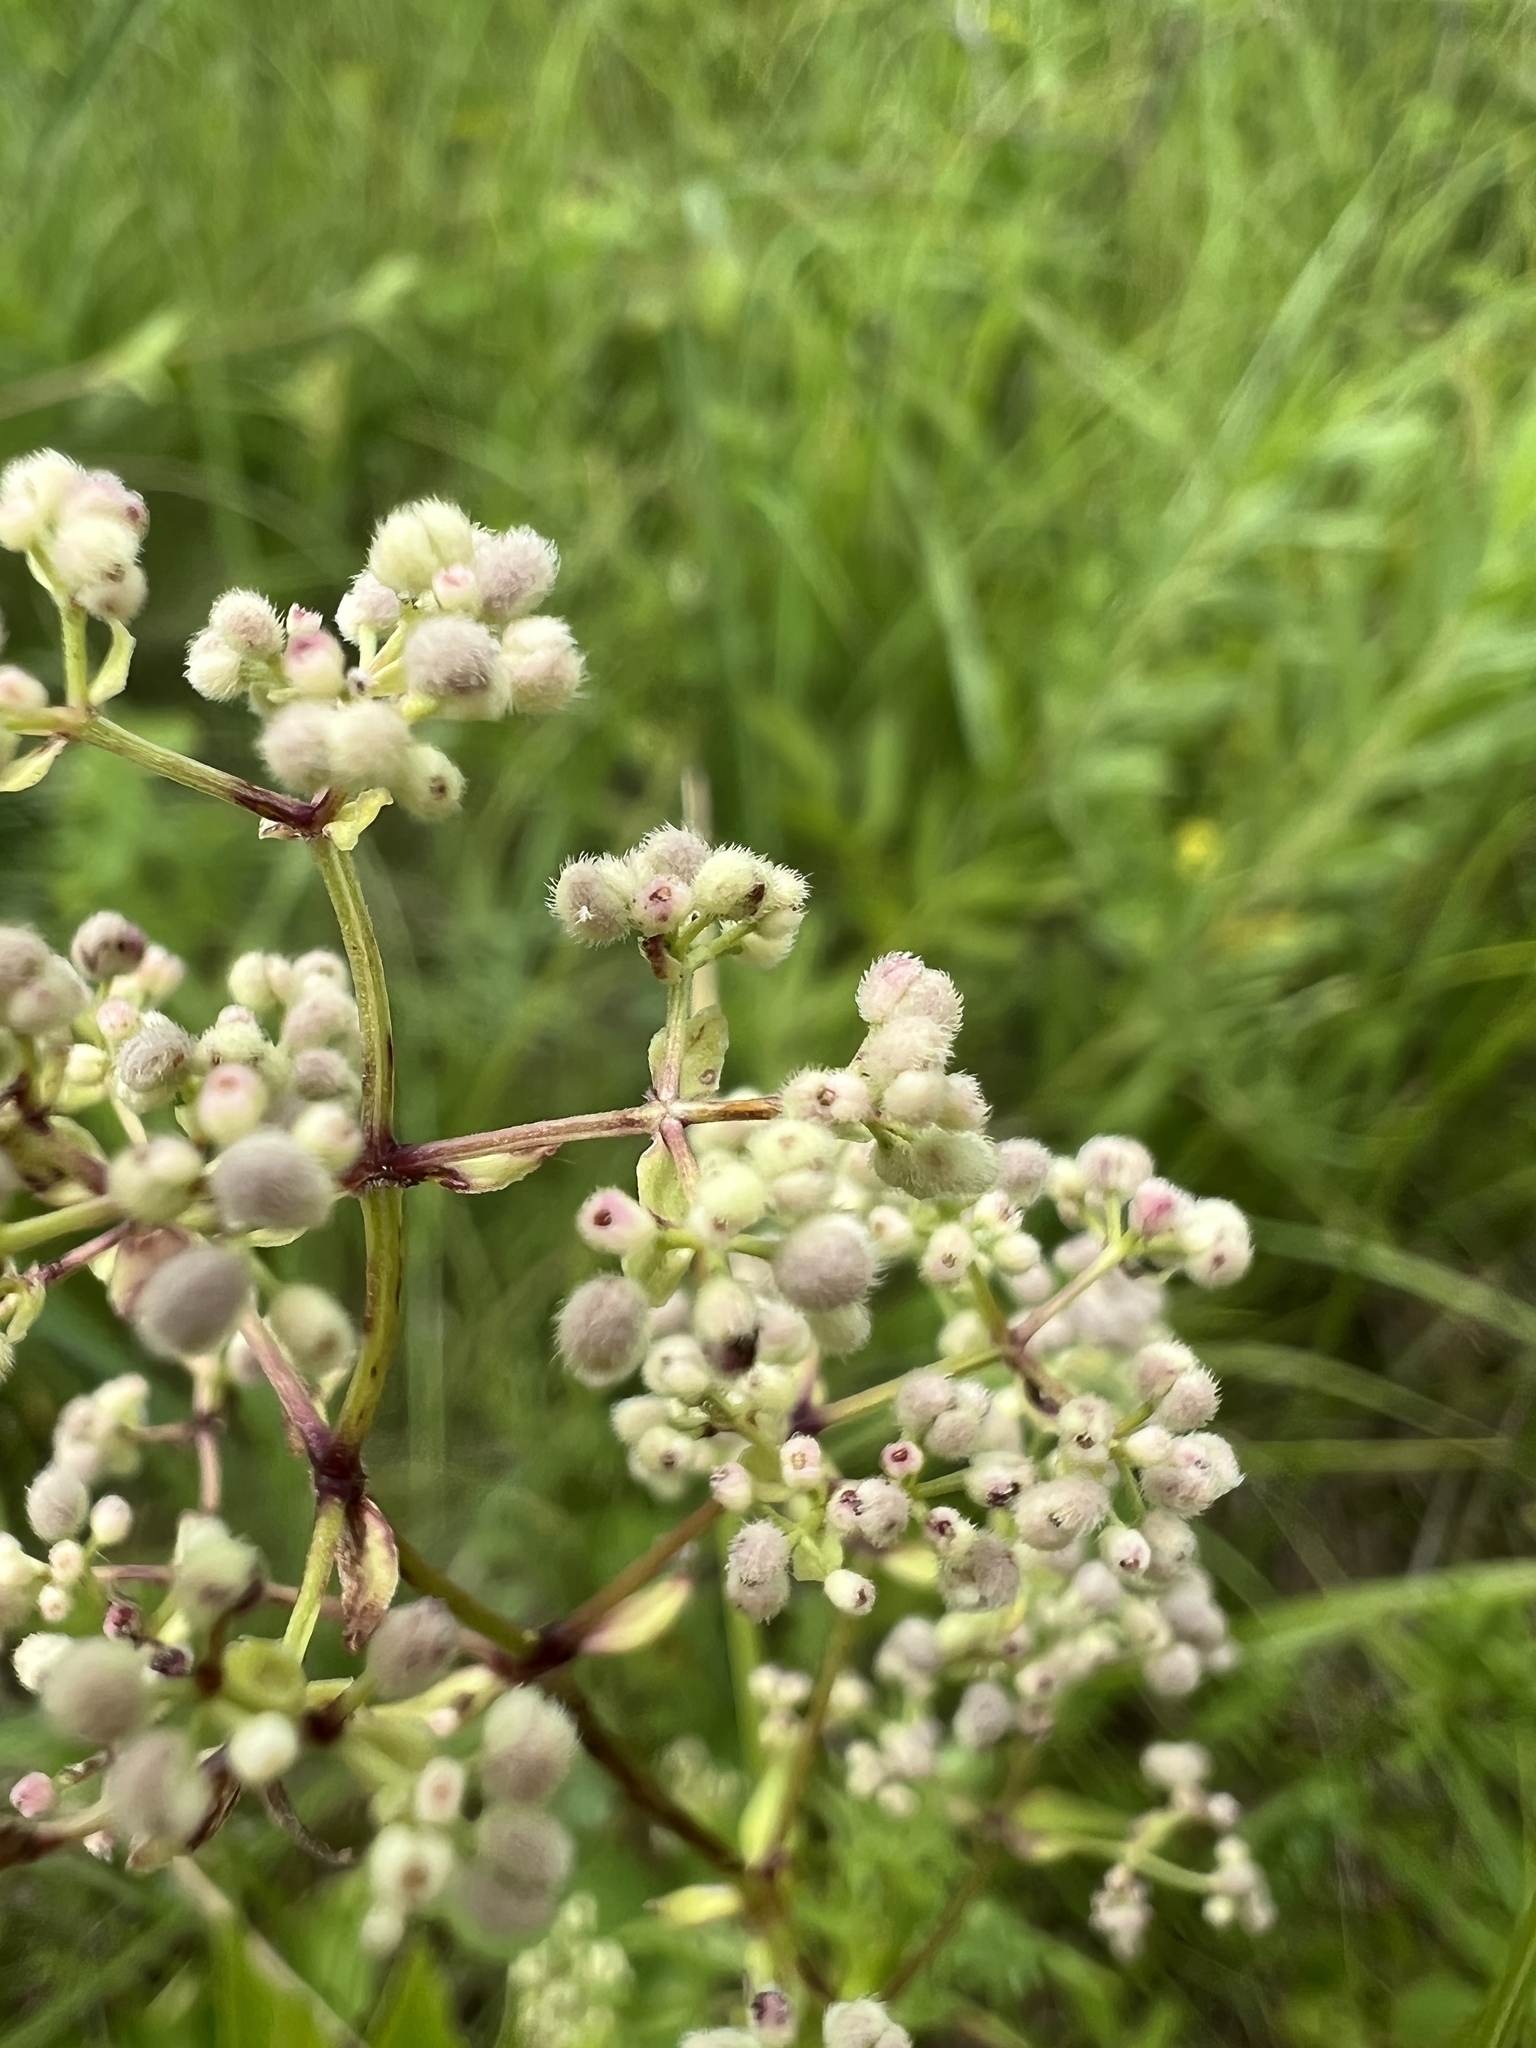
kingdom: Plantae
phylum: Tracheophyta
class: Magnoliopsida
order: Gentianales
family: Rubiaceae
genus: Galium
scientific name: Galium boreale
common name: Northern bedstraw
